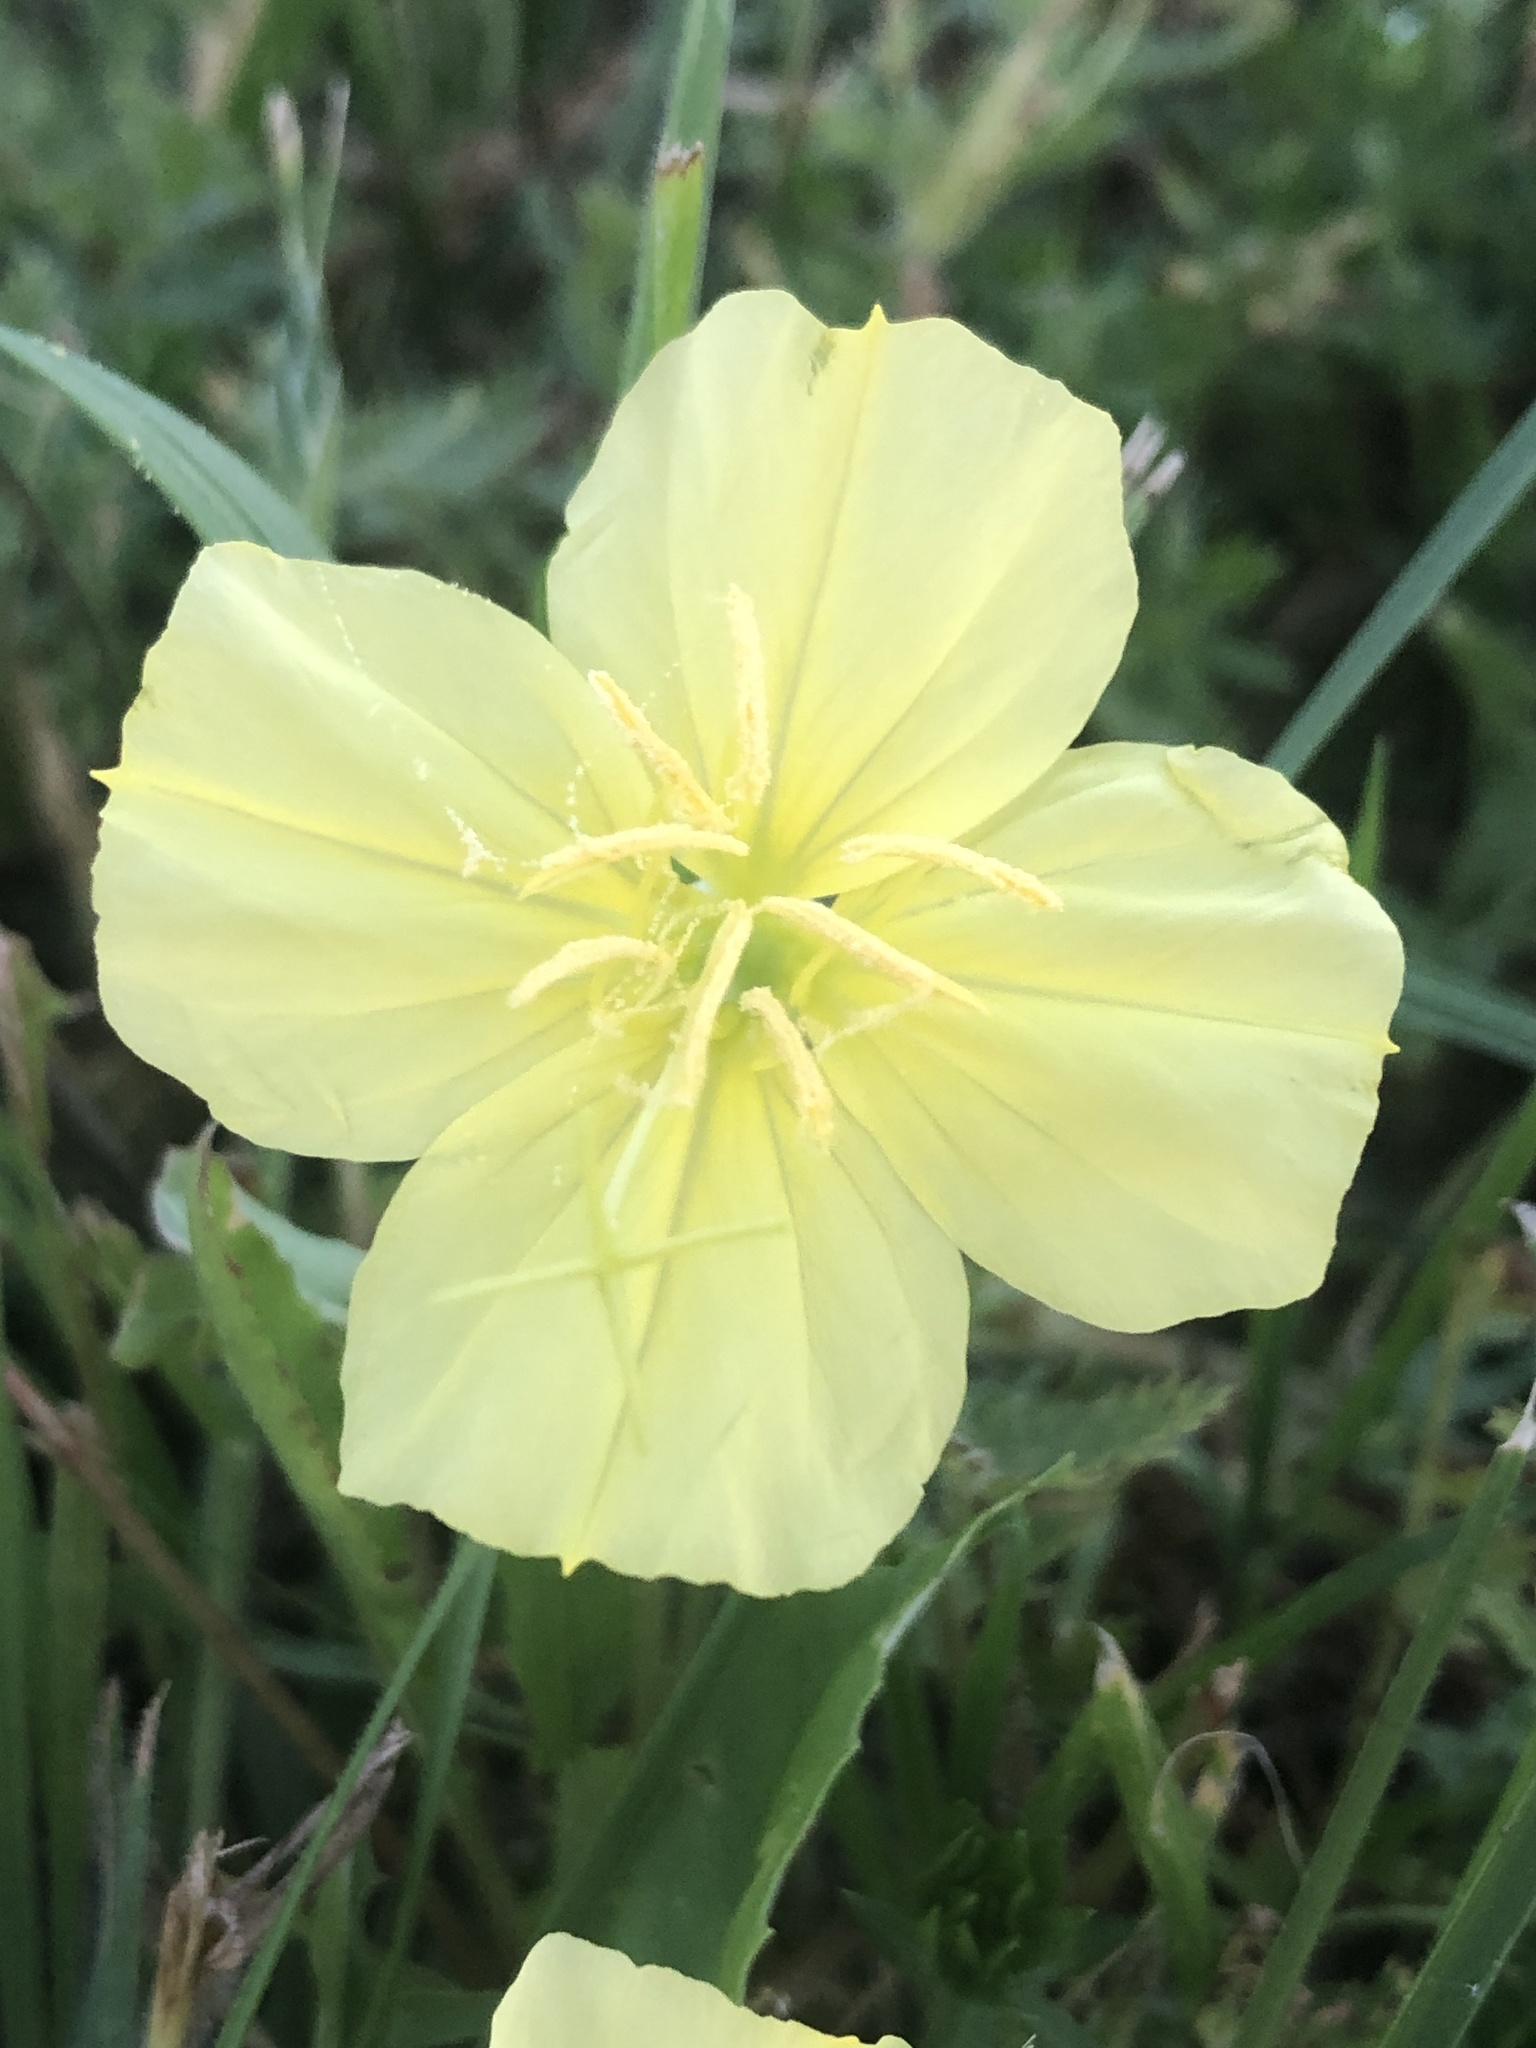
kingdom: Plantae
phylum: Tracheophyta
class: Magnoliopsida
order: Myrtales
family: Onagraceae
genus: Oenothera
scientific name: Oenothera triloba
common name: Sessile evening-primrose
